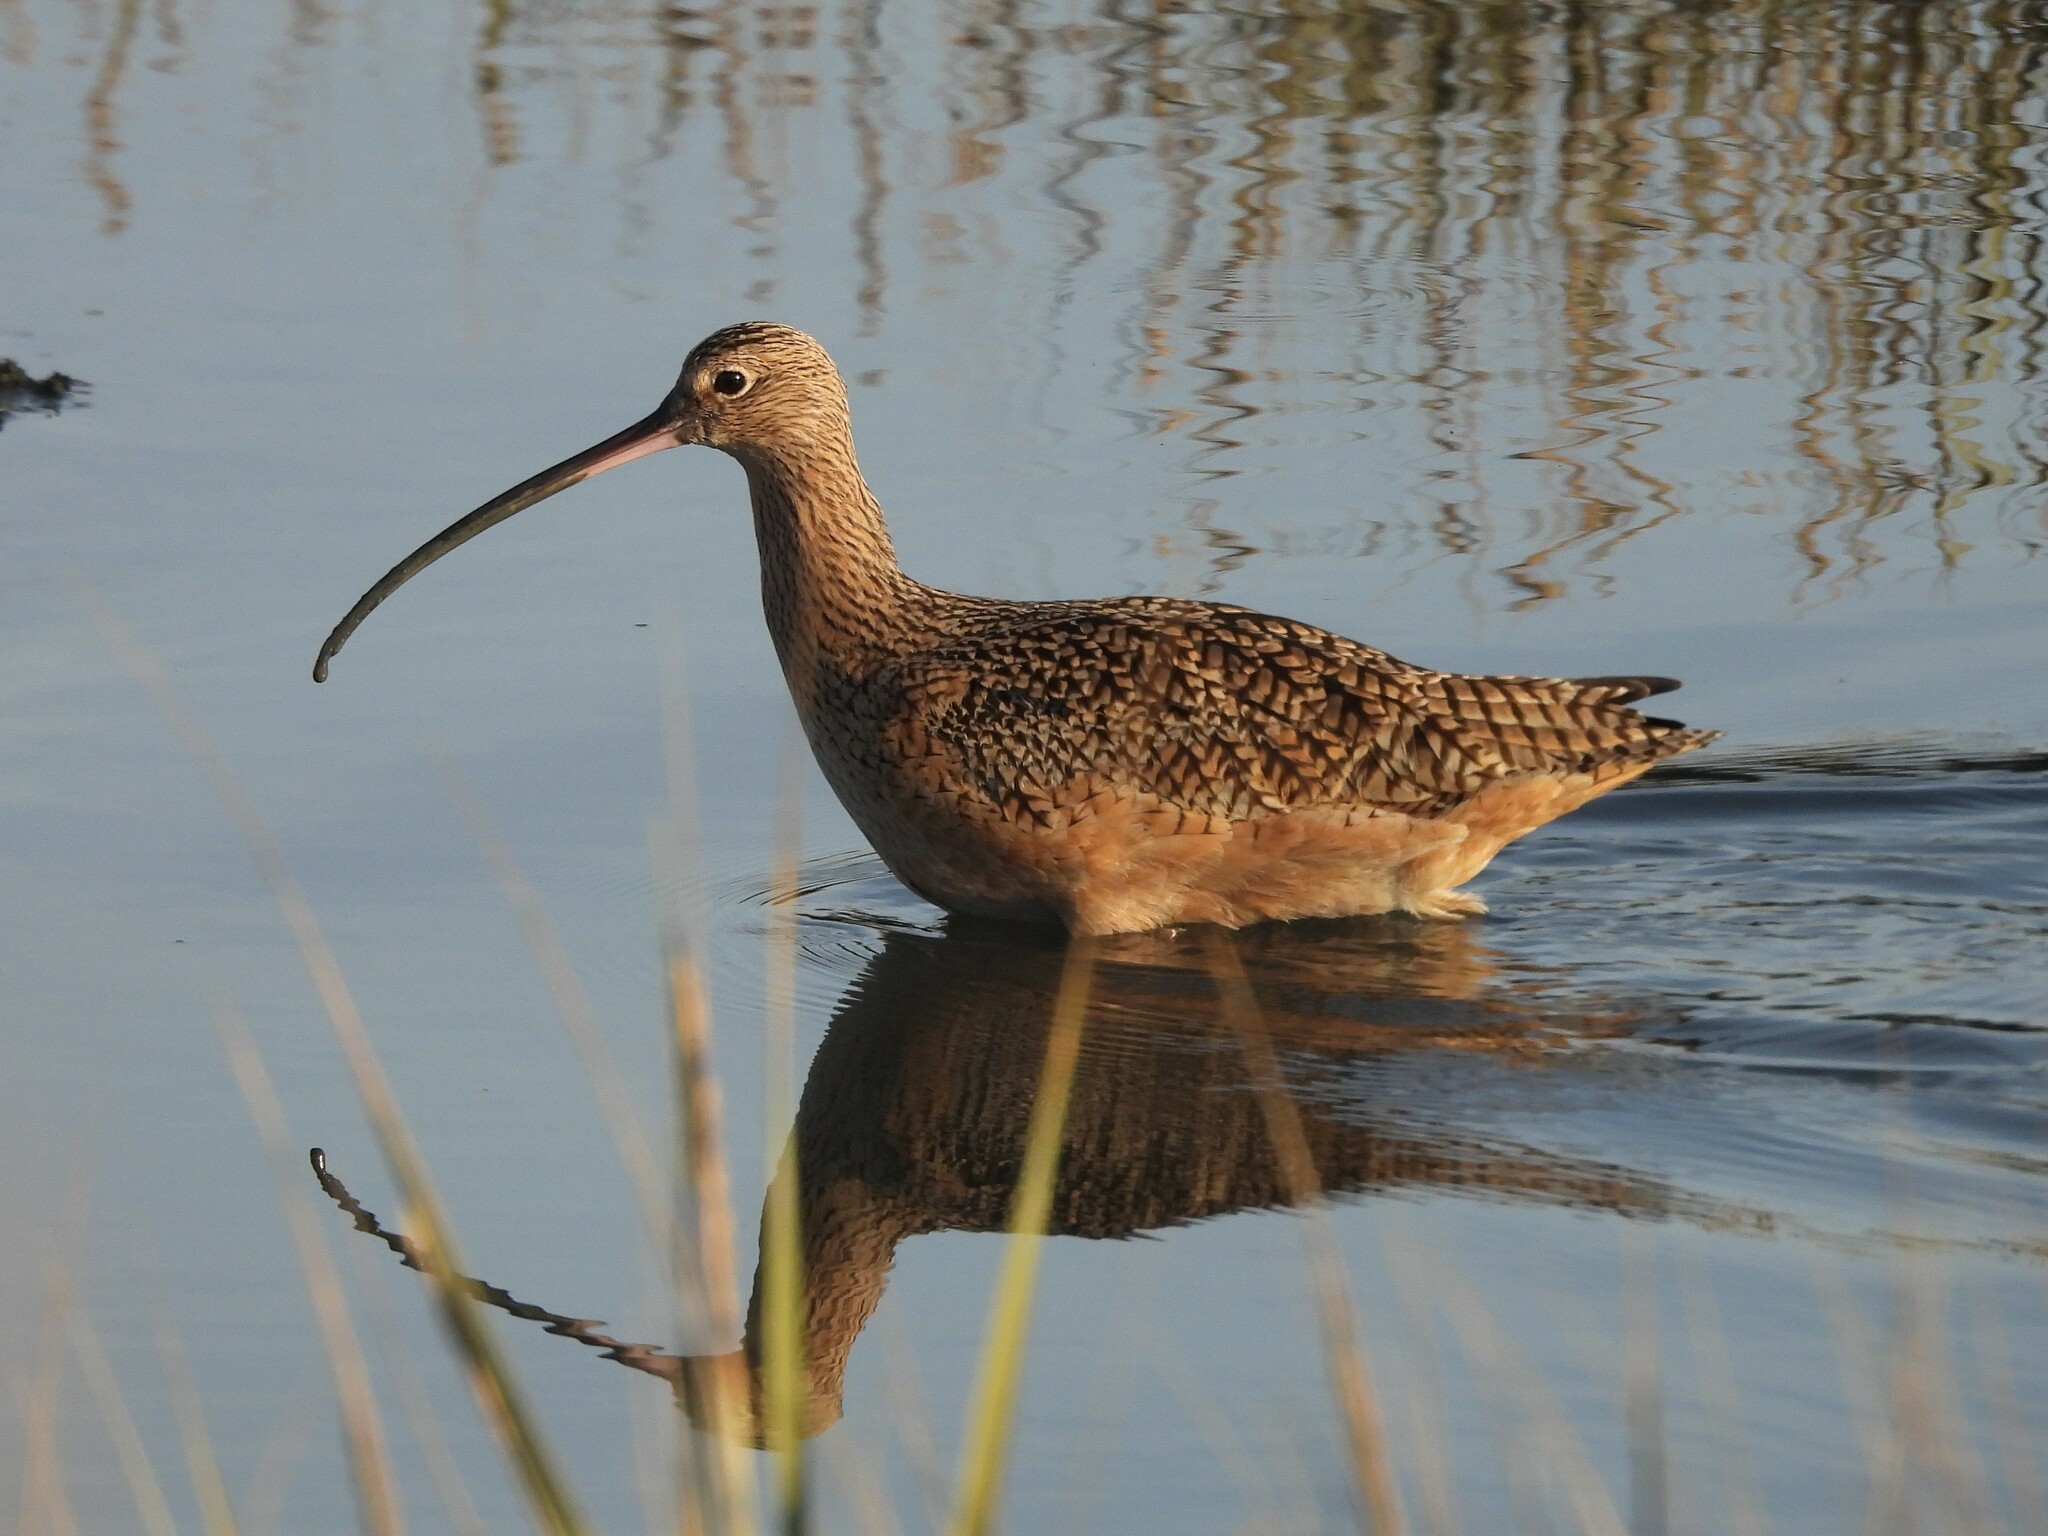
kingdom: Animalia
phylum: Chordata
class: Aves
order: Charadriiformes
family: Scolopacidae
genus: Numenius
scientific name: Numenius americanus
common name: Long-billed curlew
